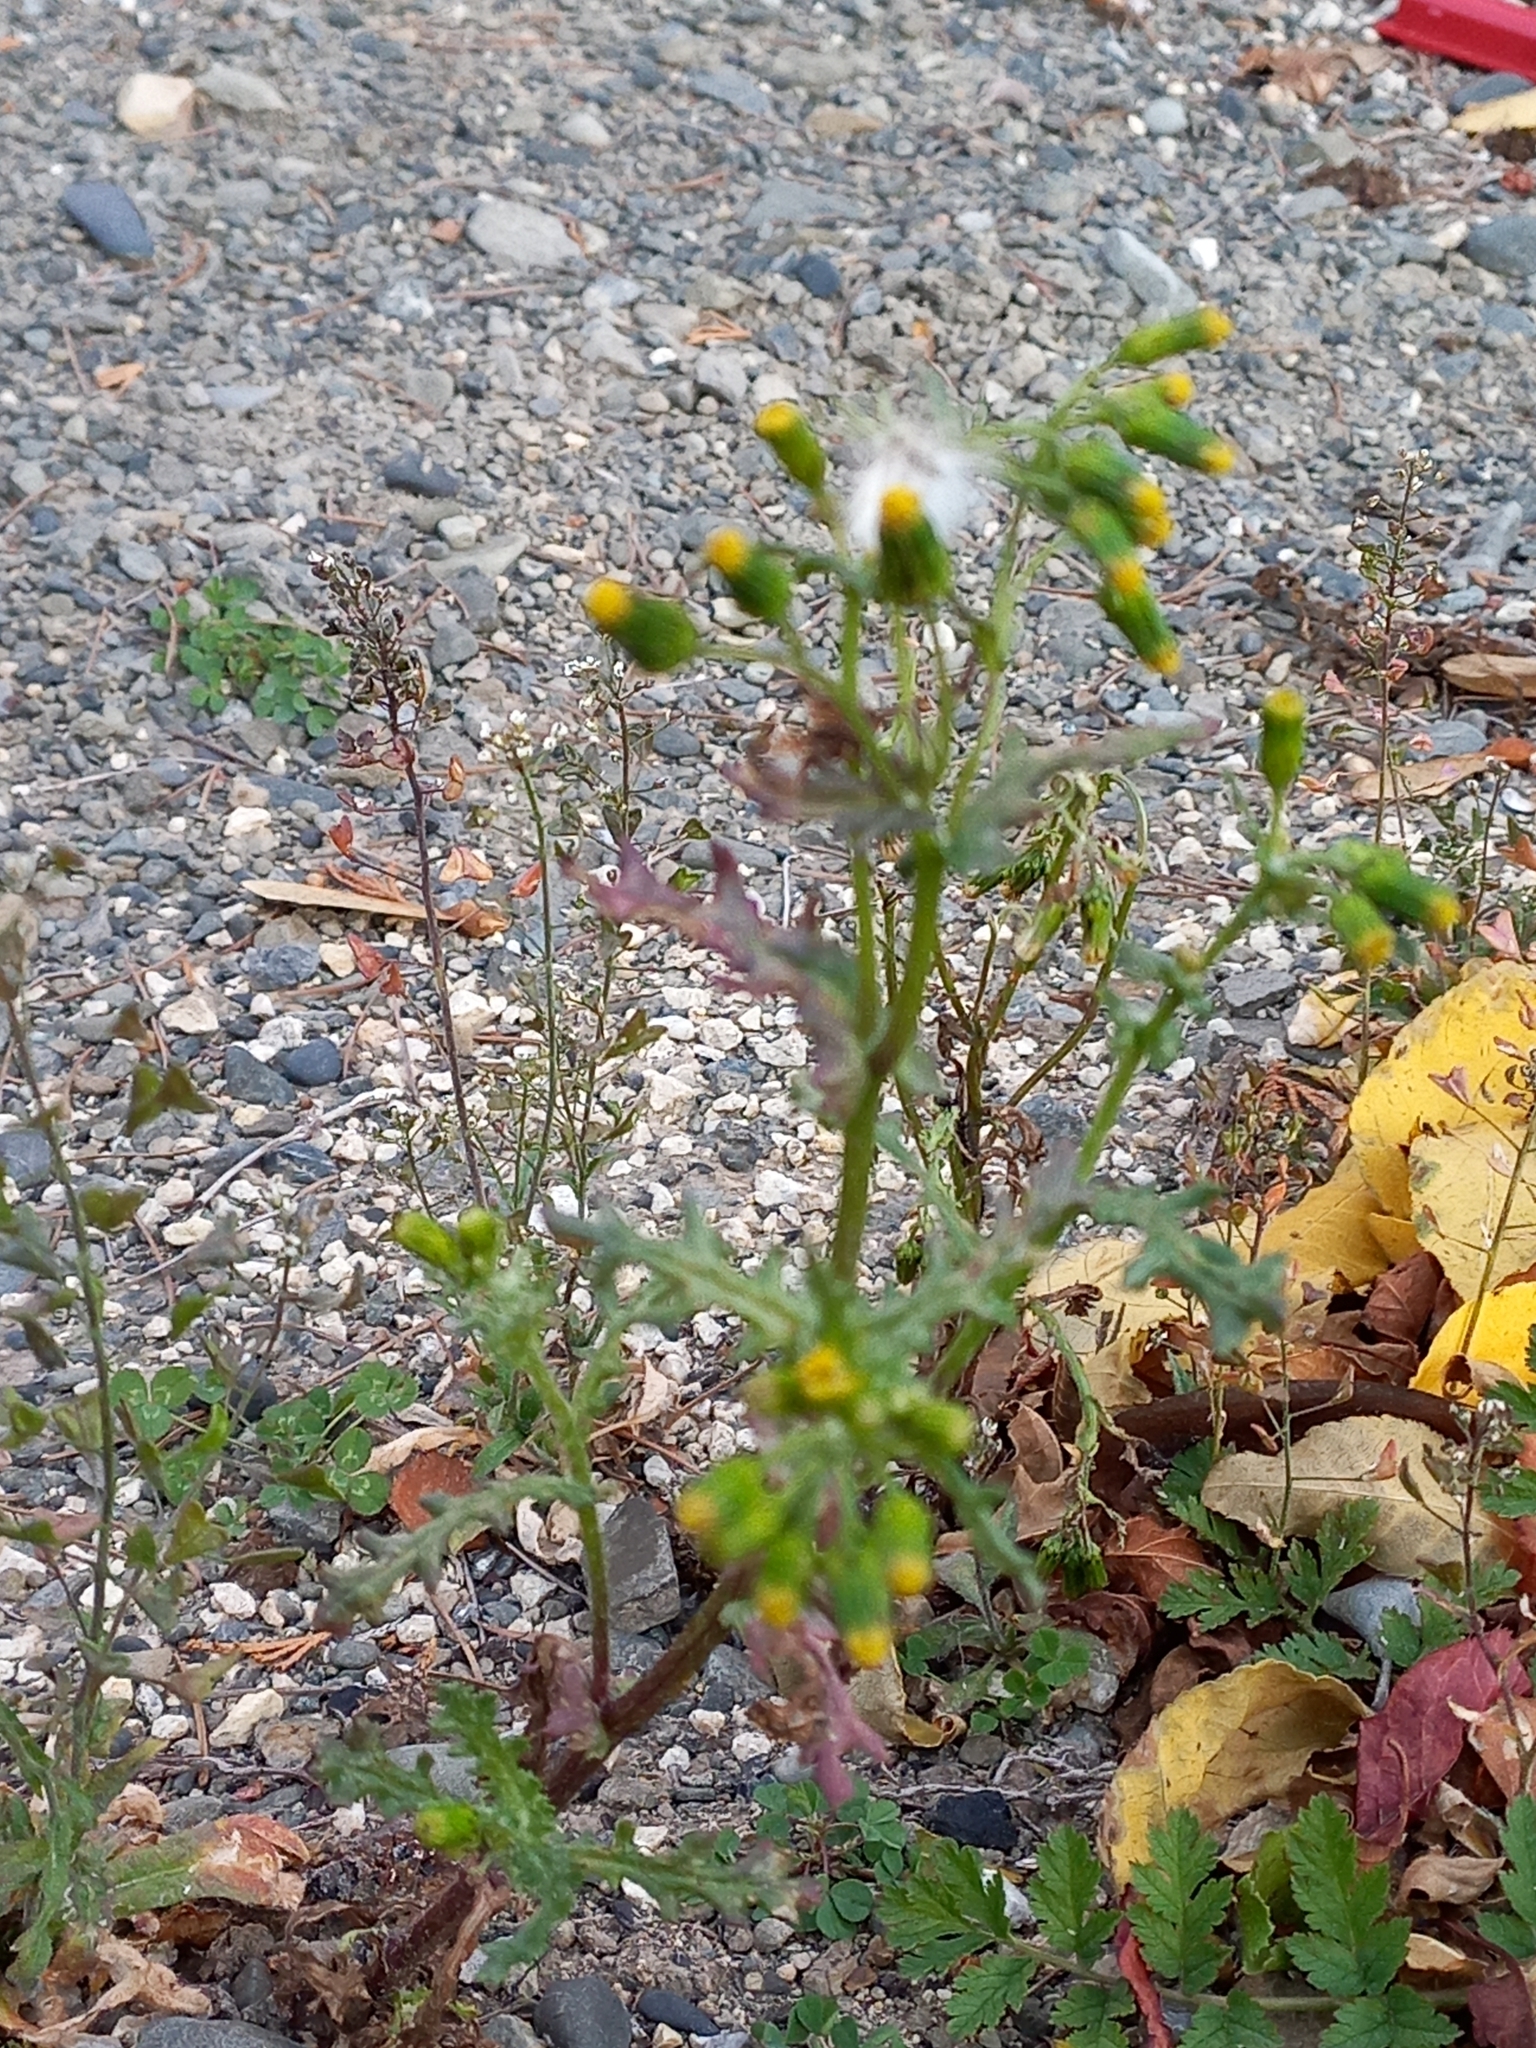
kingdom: Plantae
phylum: Tracheophyta
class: Magnoliopsida
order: Asterales
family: Asteraceae
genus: Senecio
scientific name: Senecio vulgaris
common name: Old-man-in-the-spring
